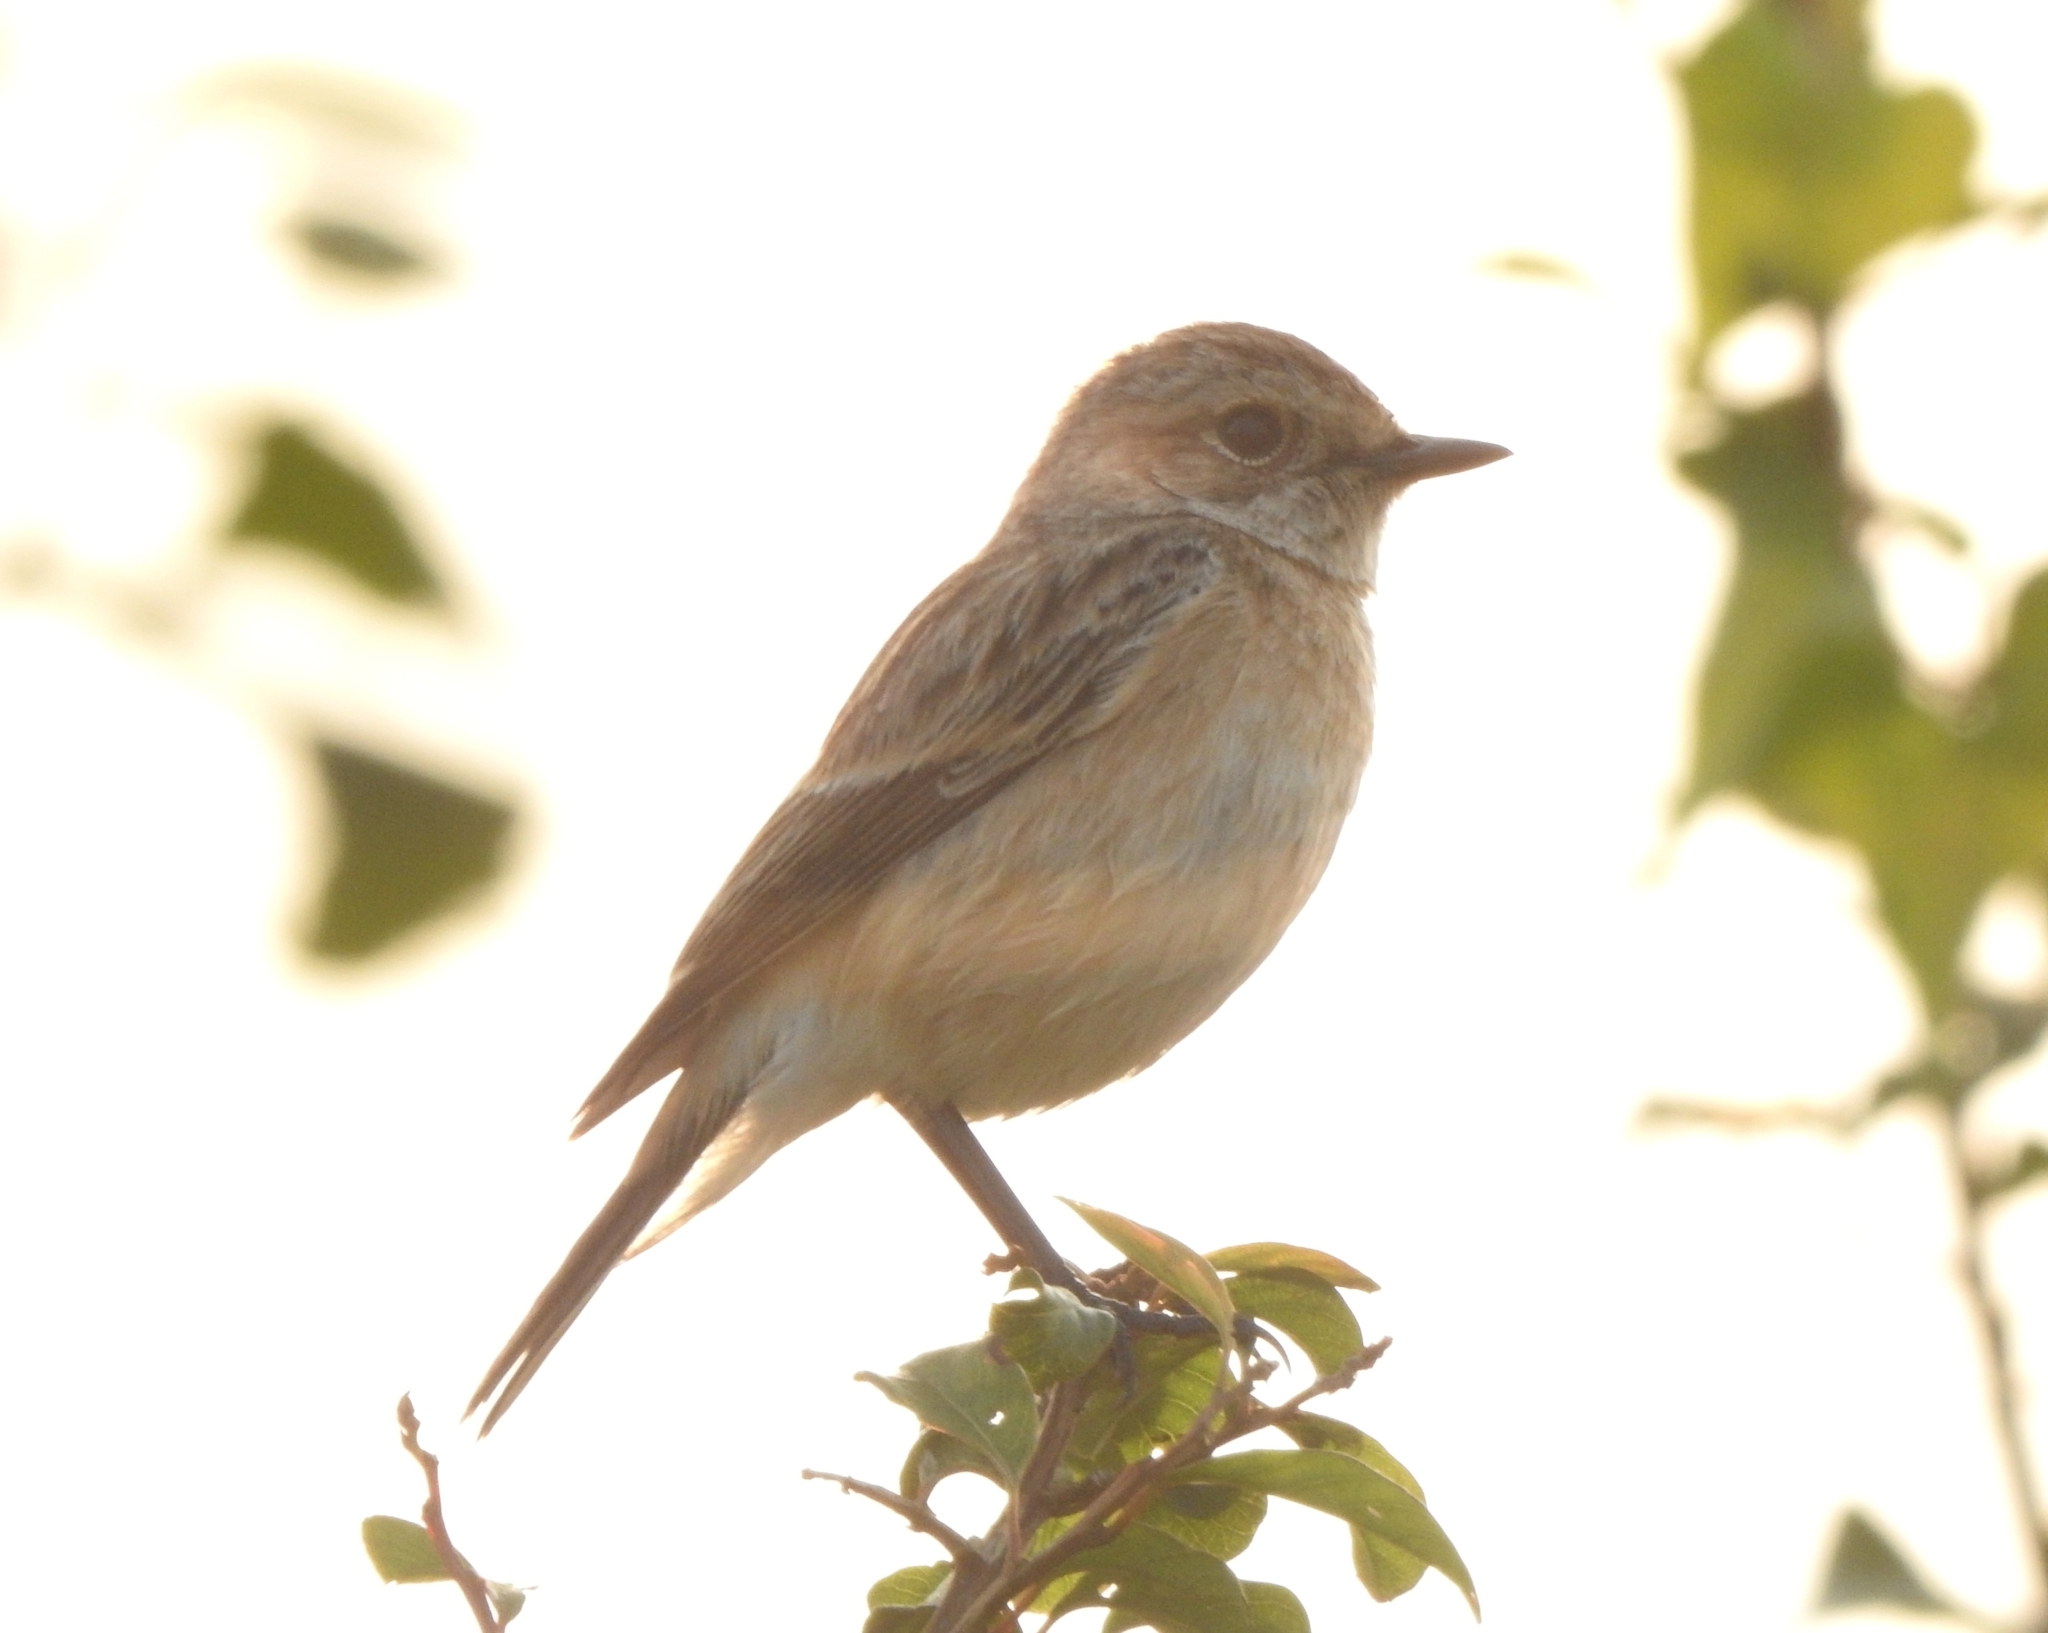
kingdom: Animalia
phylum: Chordata
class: Aves
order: Passeriformes
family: Muscicapidae
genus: Saxicola
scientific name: Saxicola maurus
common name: Siberian stonechat
